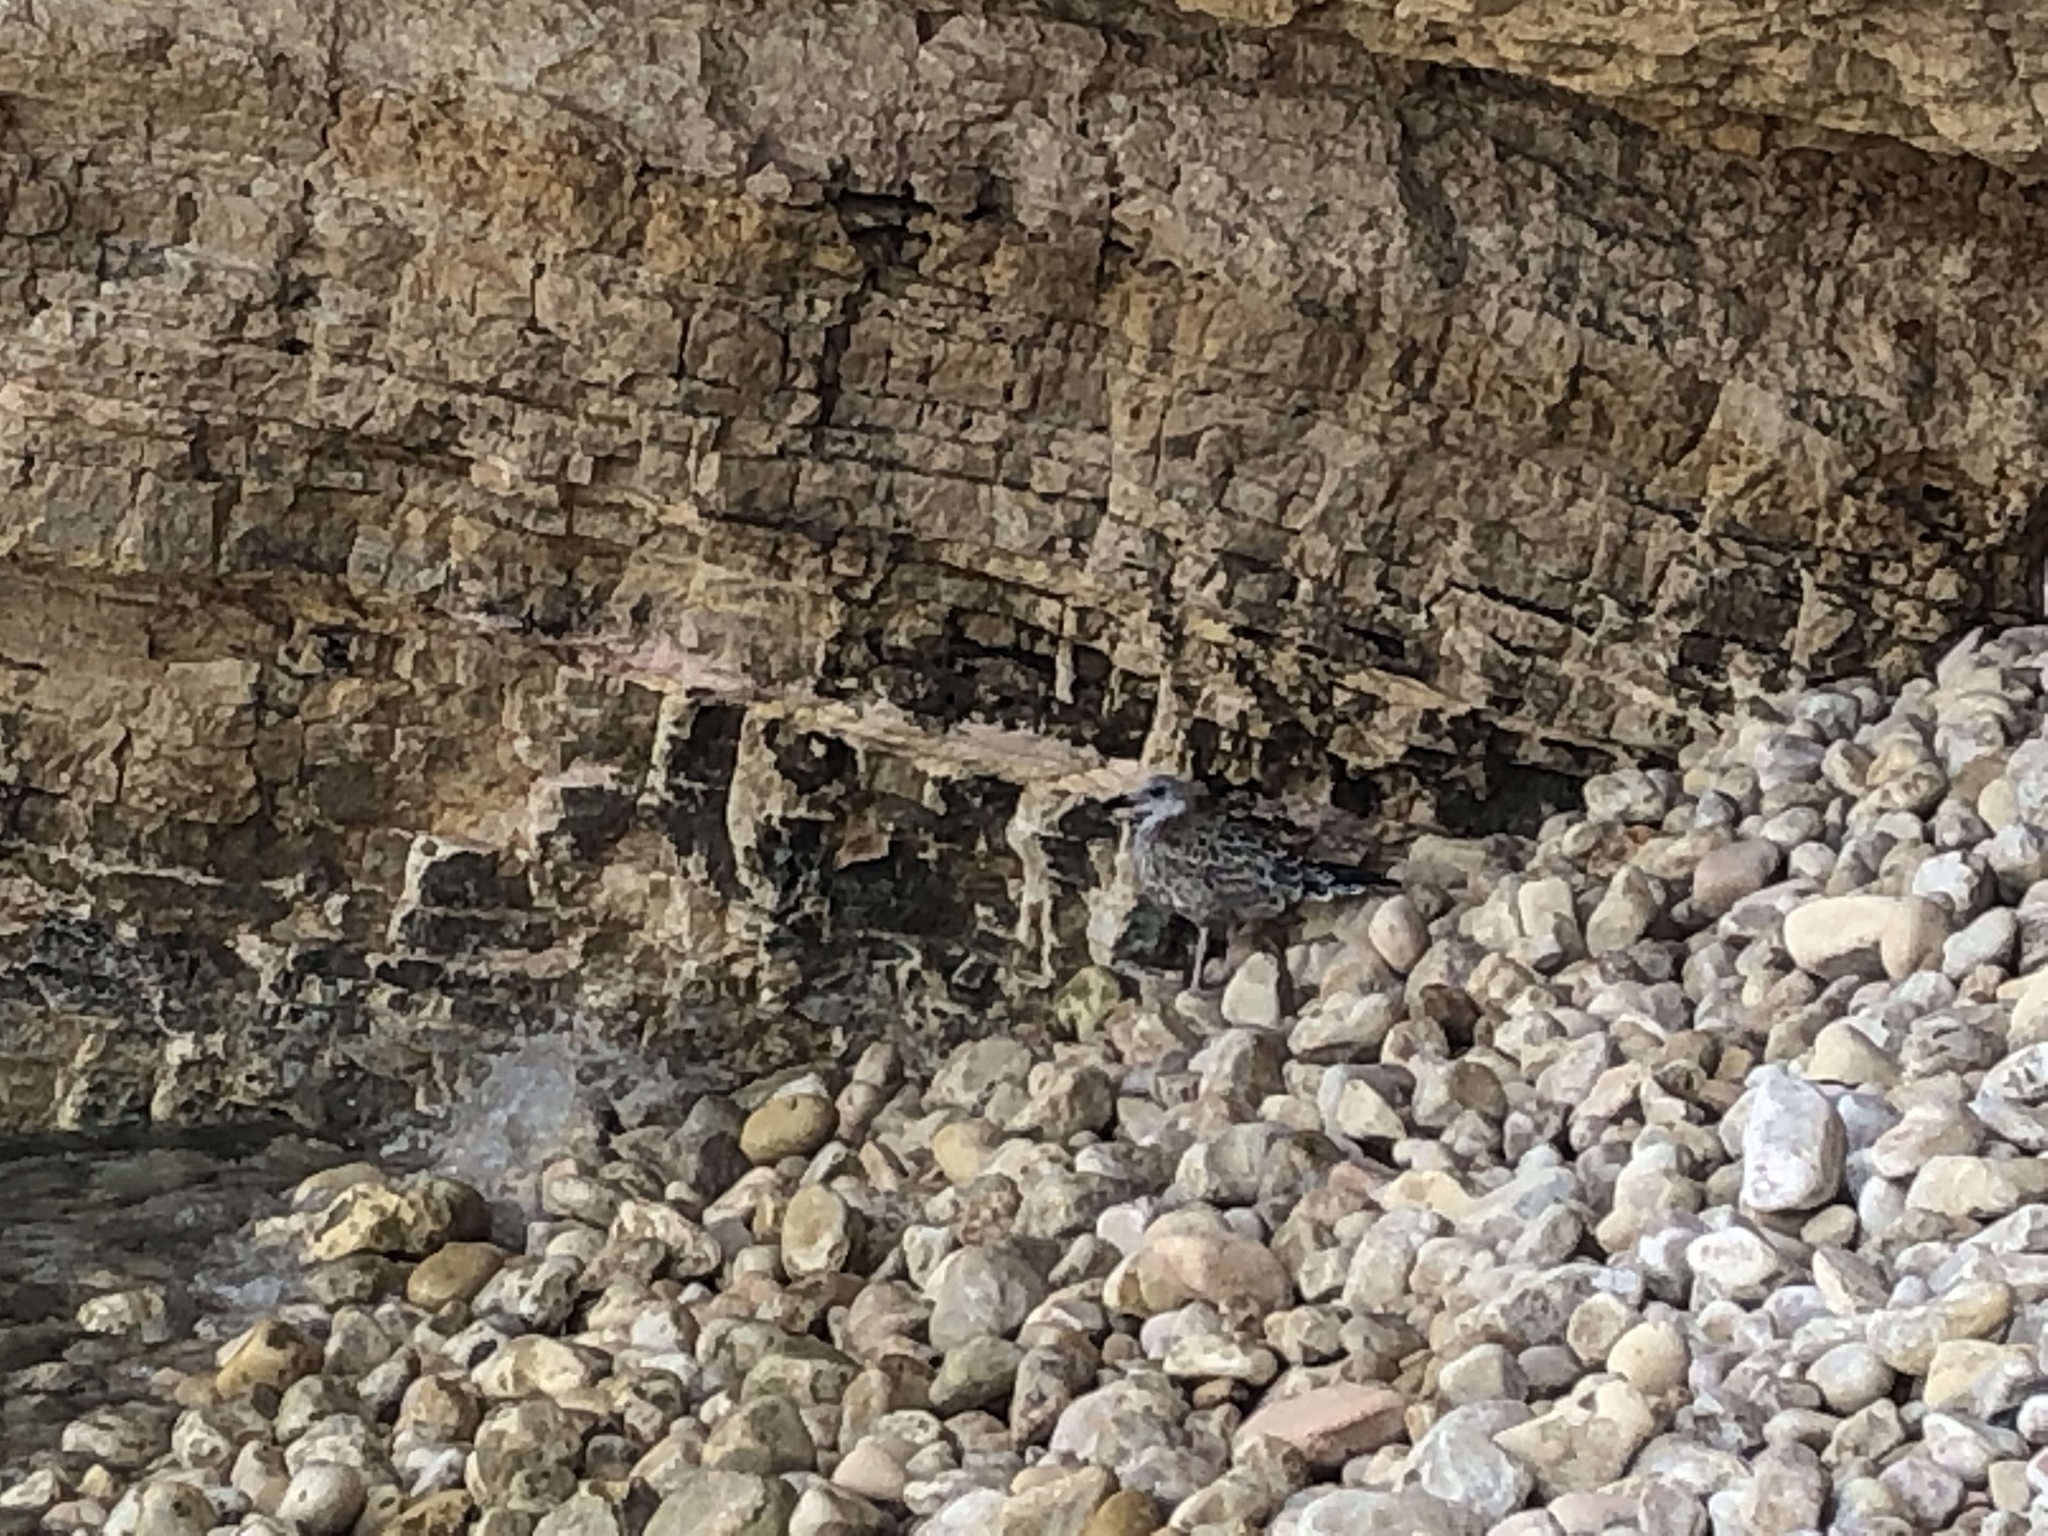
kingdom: Animalia
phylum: Chordata
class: Aves
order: Charadriiformes
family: Laridae
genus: Larus
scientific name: Larus michahellis
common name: Yellow-legged gull
